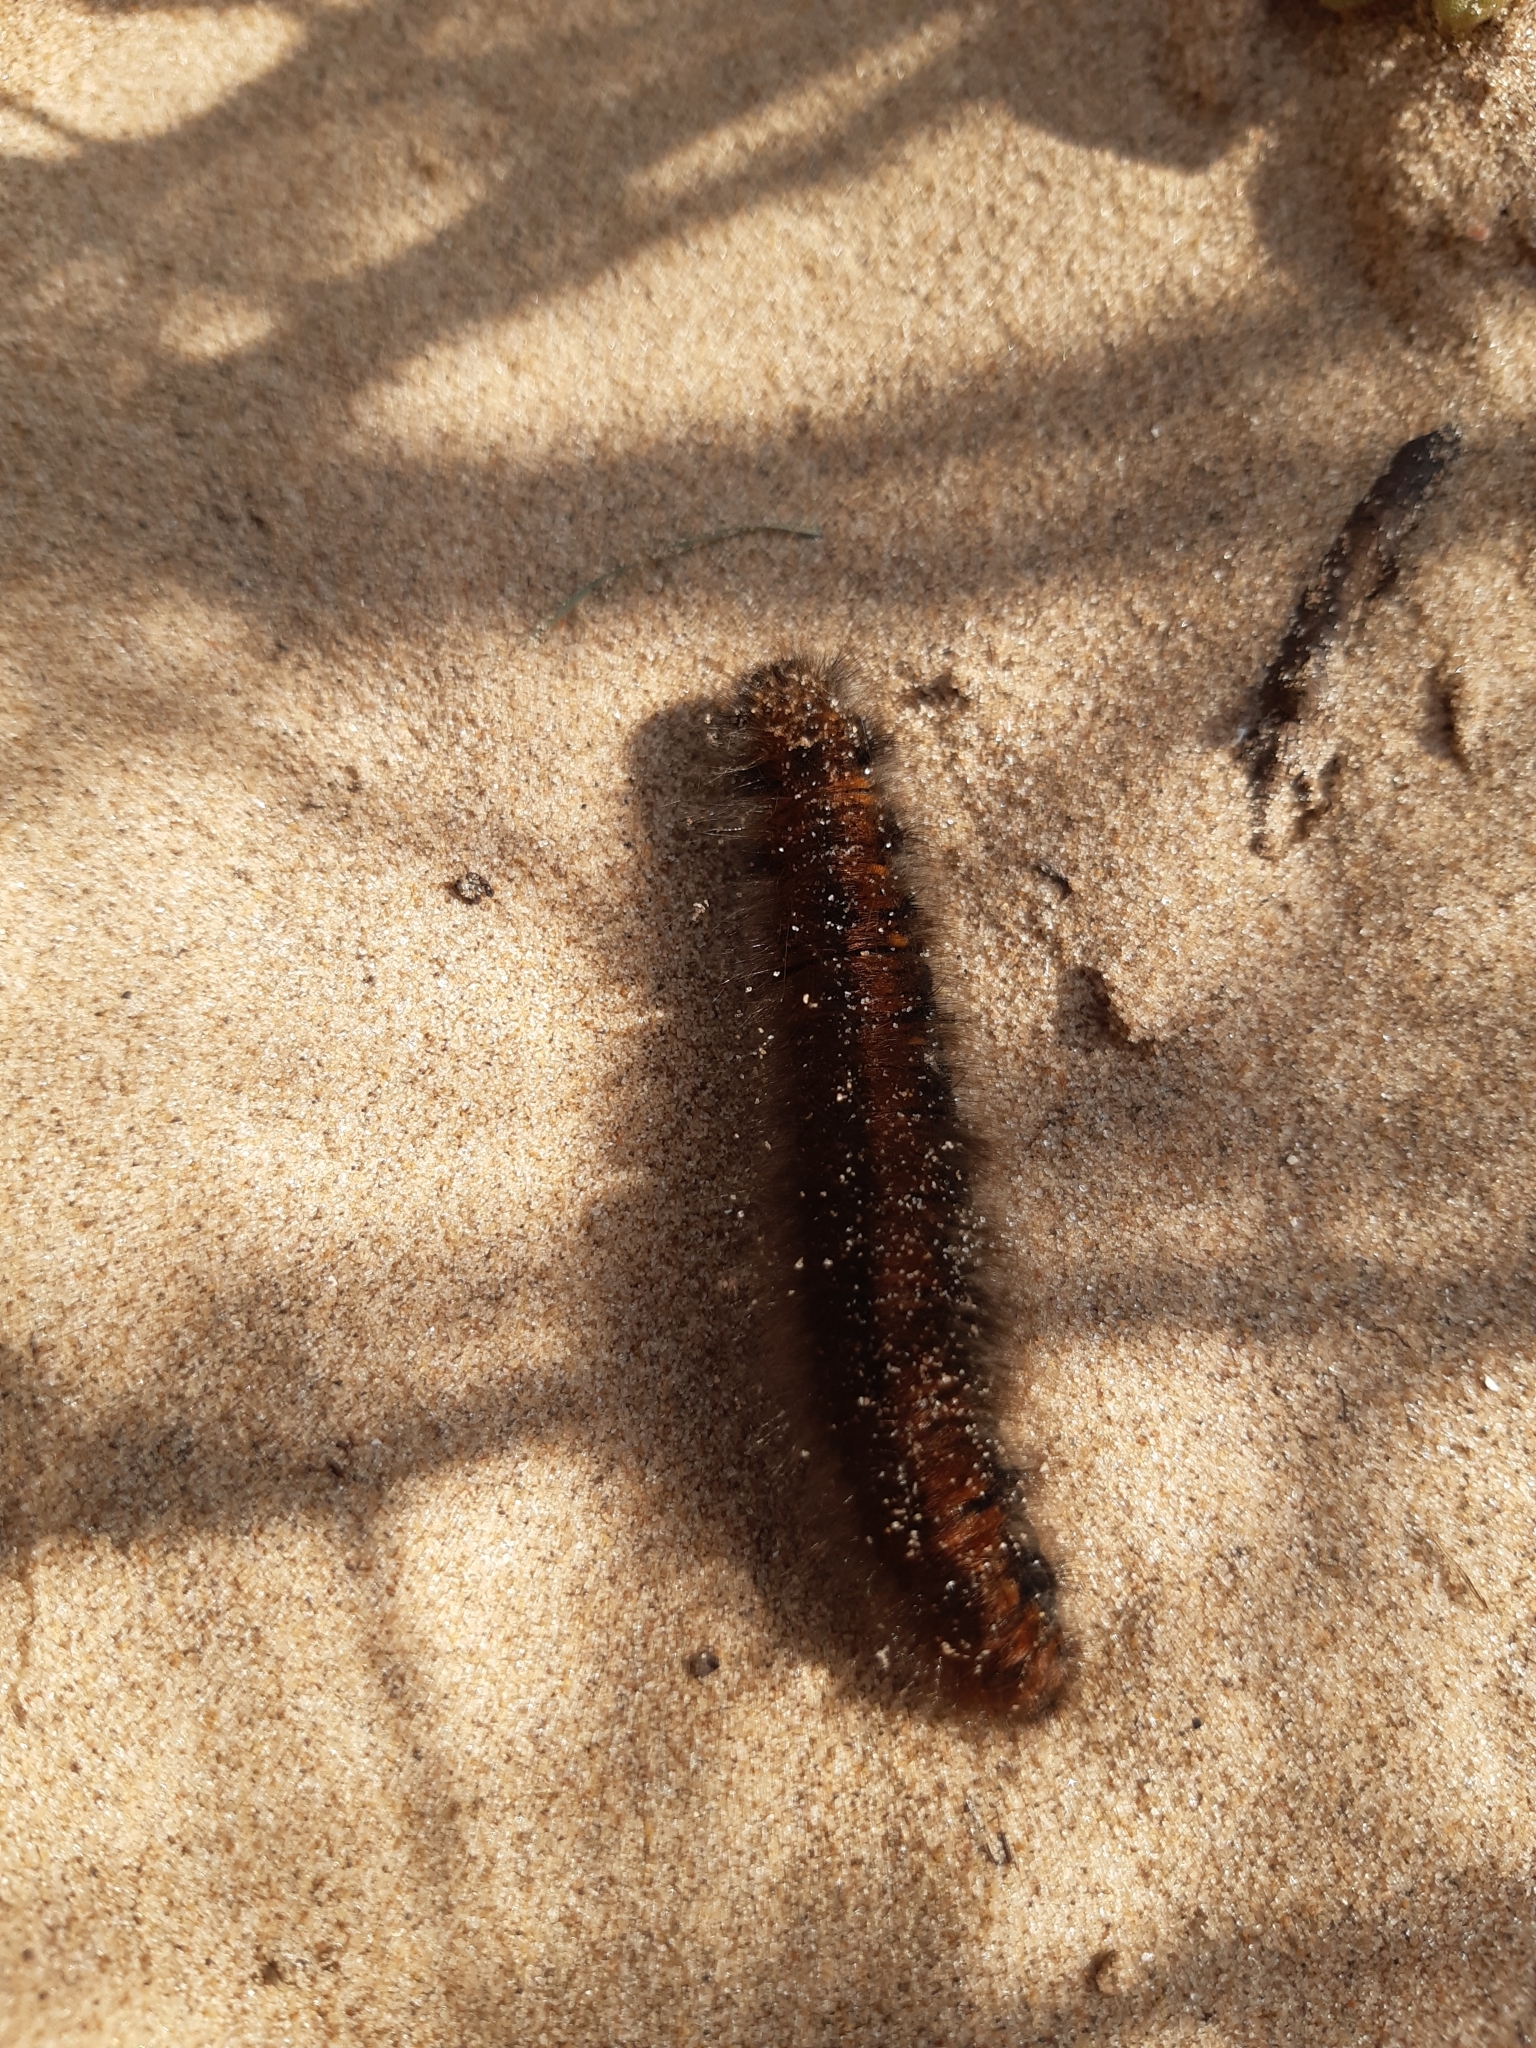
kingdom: Animalia
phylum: Arthropoda
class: Insecta
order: Lepidoptera
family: Lasiocampidae
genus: Macrothylacia
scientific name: Macrothylacia rubi
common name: Fox moth
